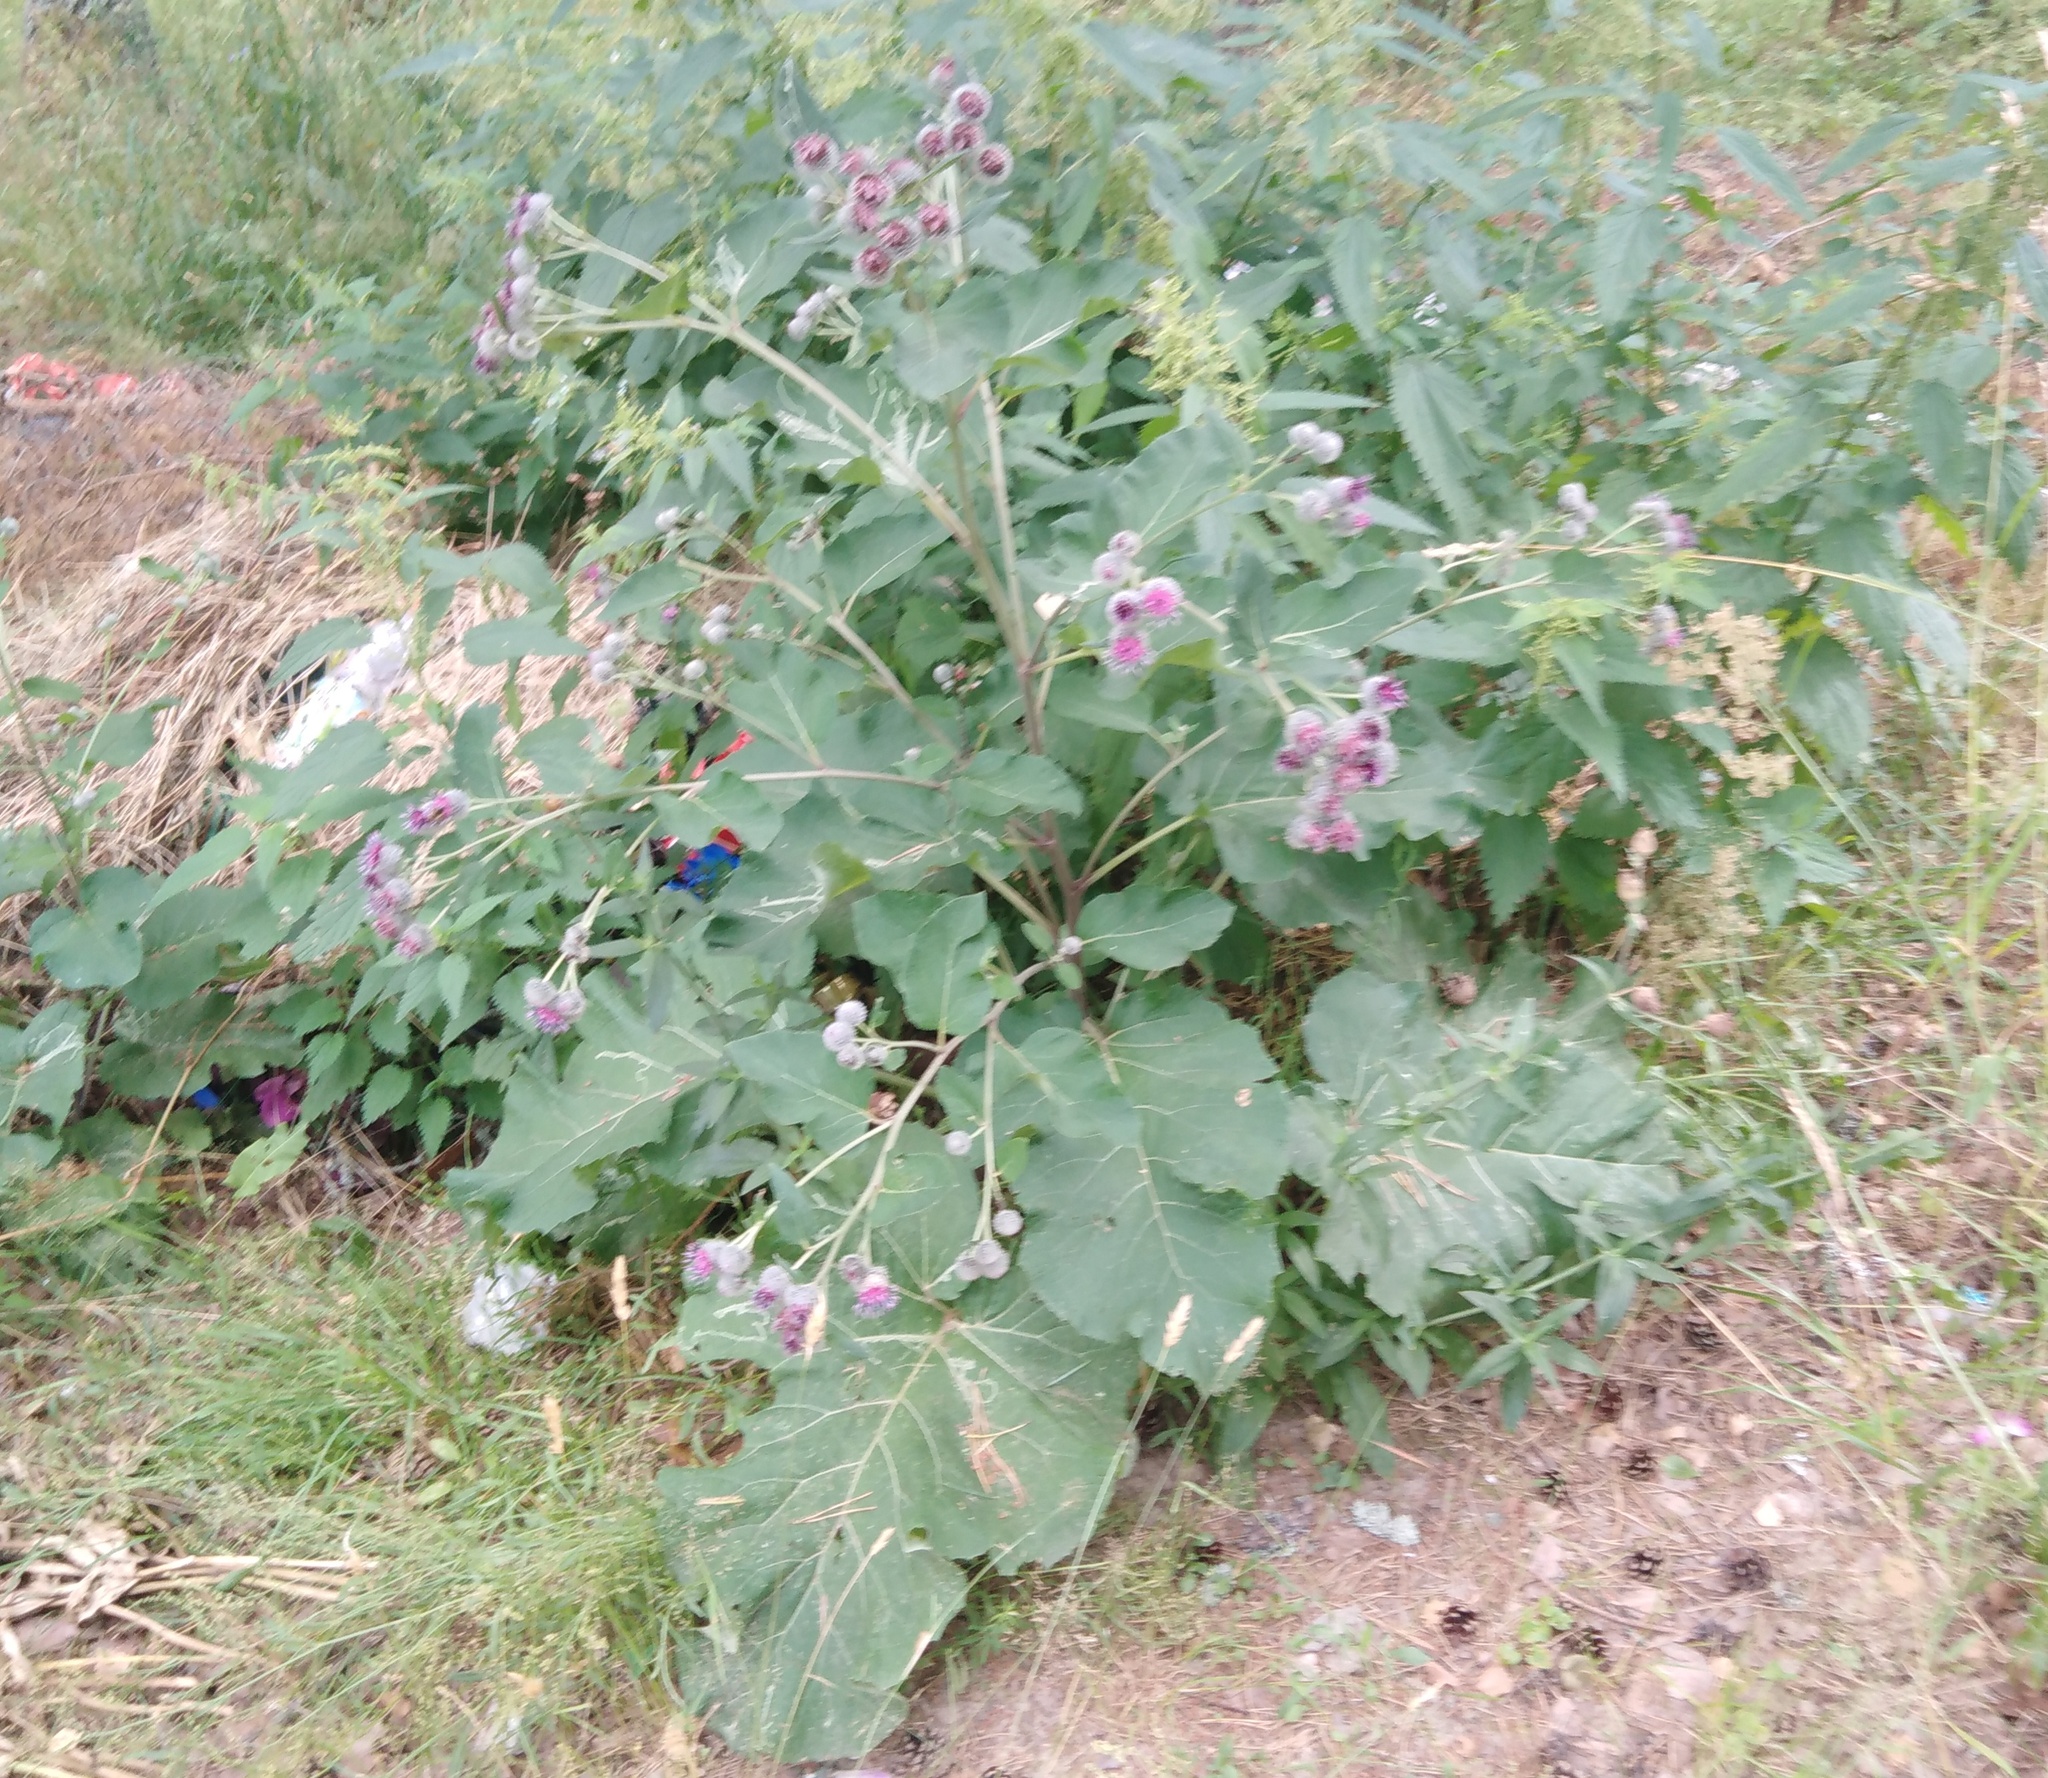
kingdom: Plantae
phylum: Tracheophyta
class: Magnoliopsida
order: Asterales
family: Asteraceae
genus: Arctium
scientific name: Arctium tomentosum
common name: Woolly burdock
